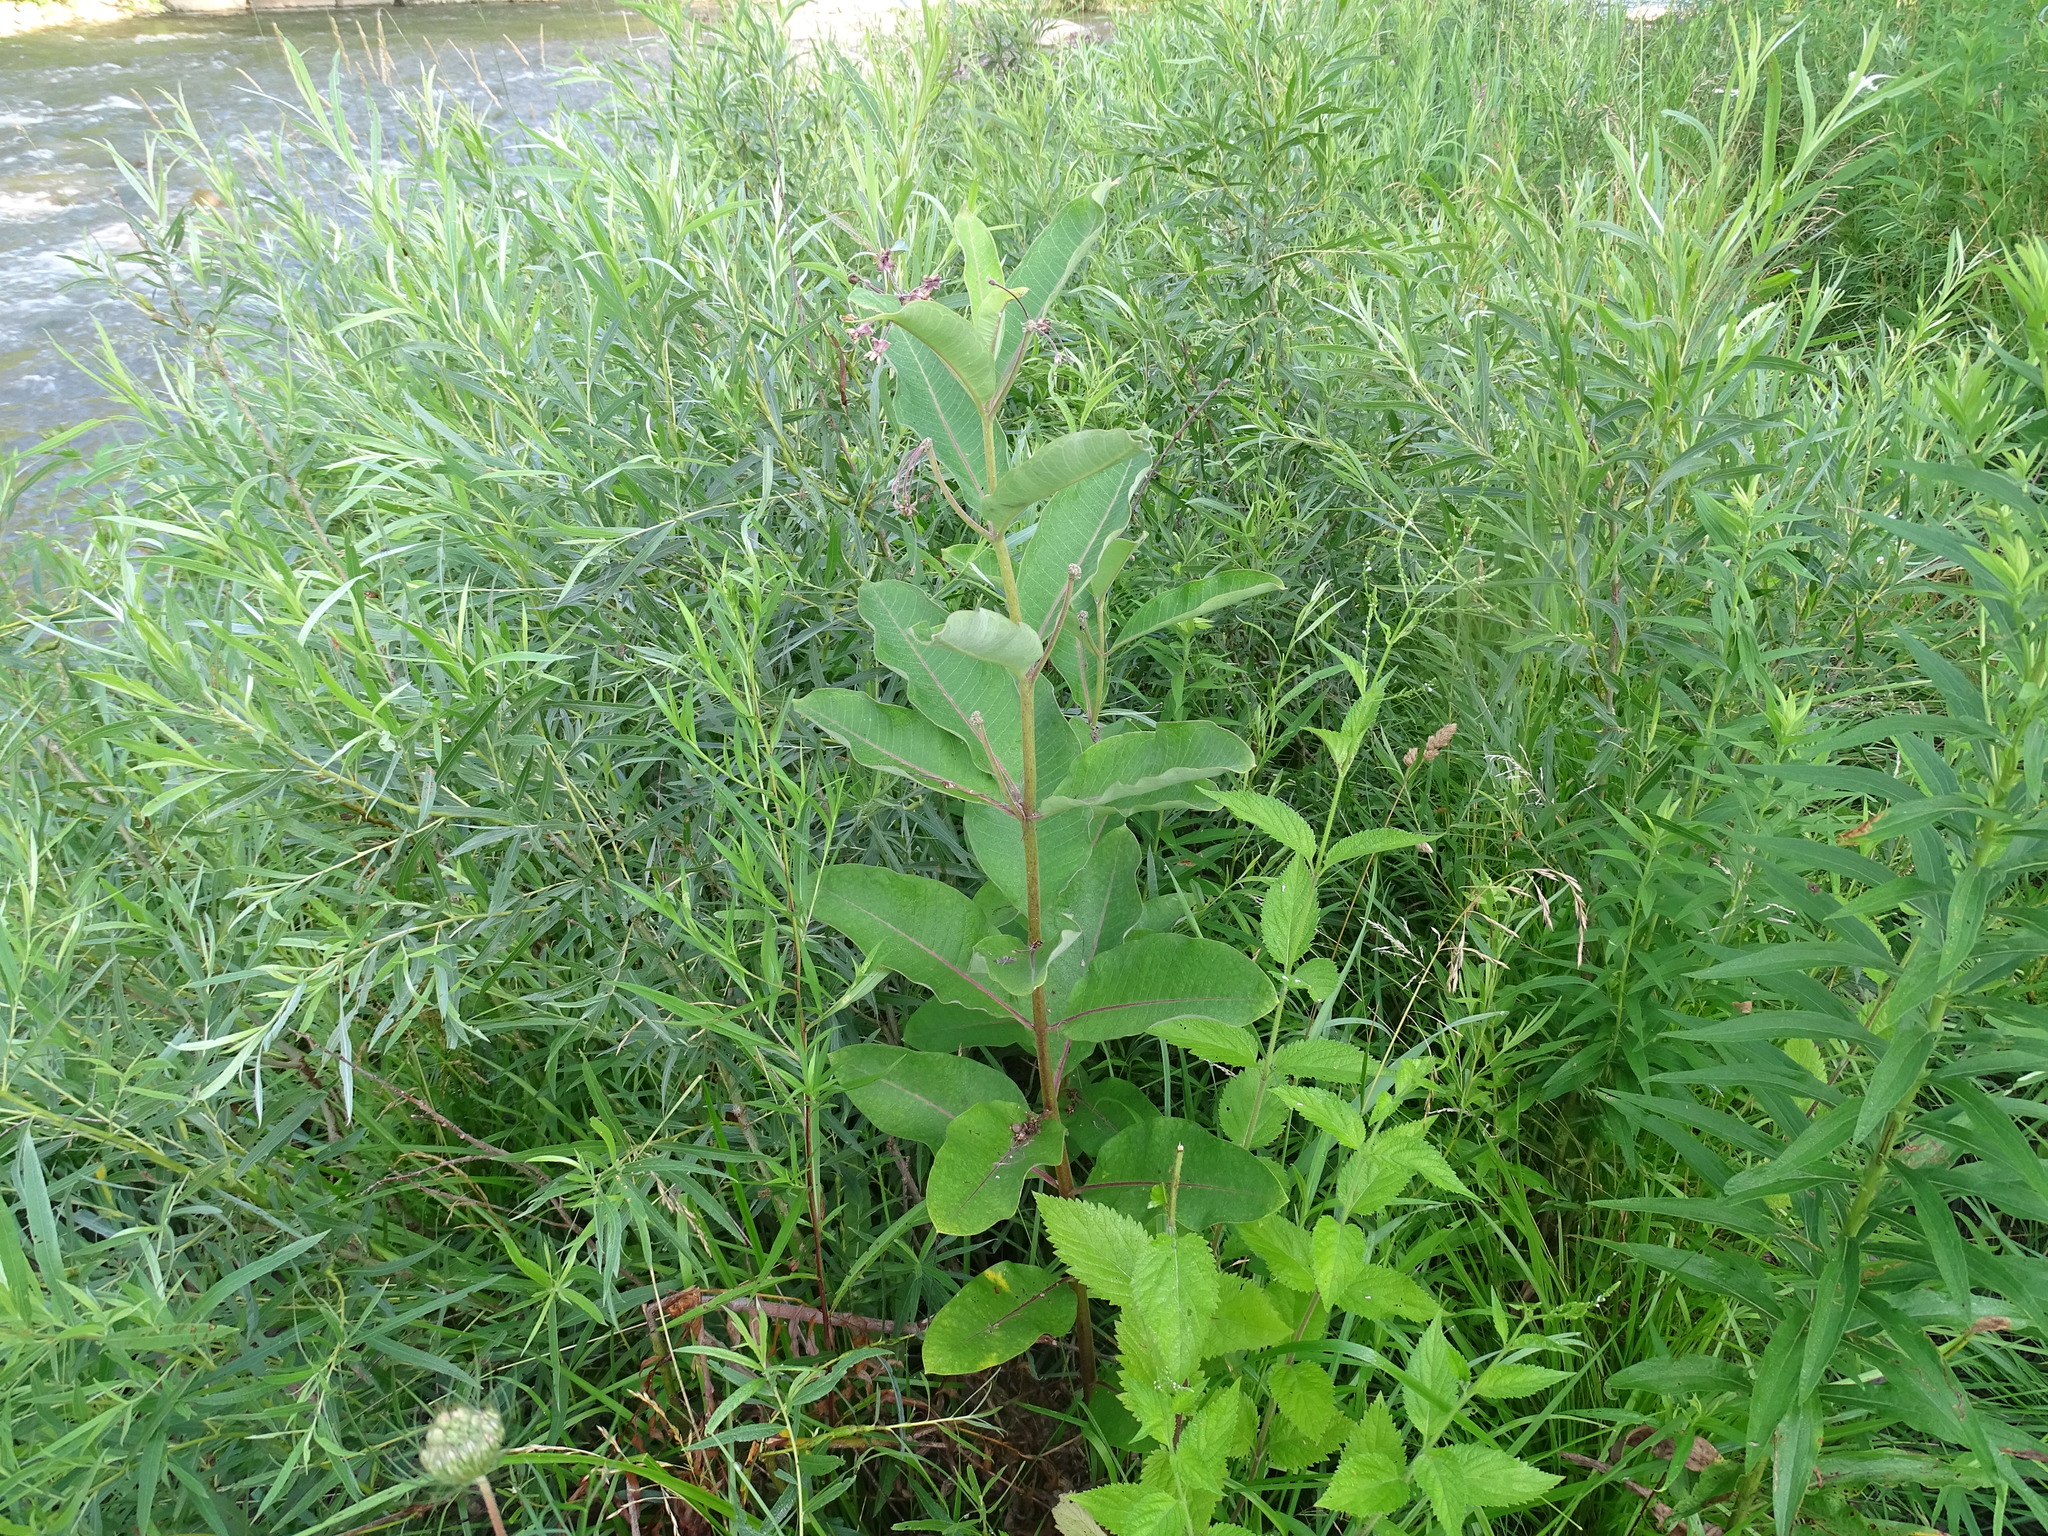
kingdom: Plantae
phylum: Tracheophyta
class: Magnoliopsida
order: Gentianales
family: Apocynaceae
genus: Asclepias
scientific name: Asclepias syriaca
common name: Common milkweed
